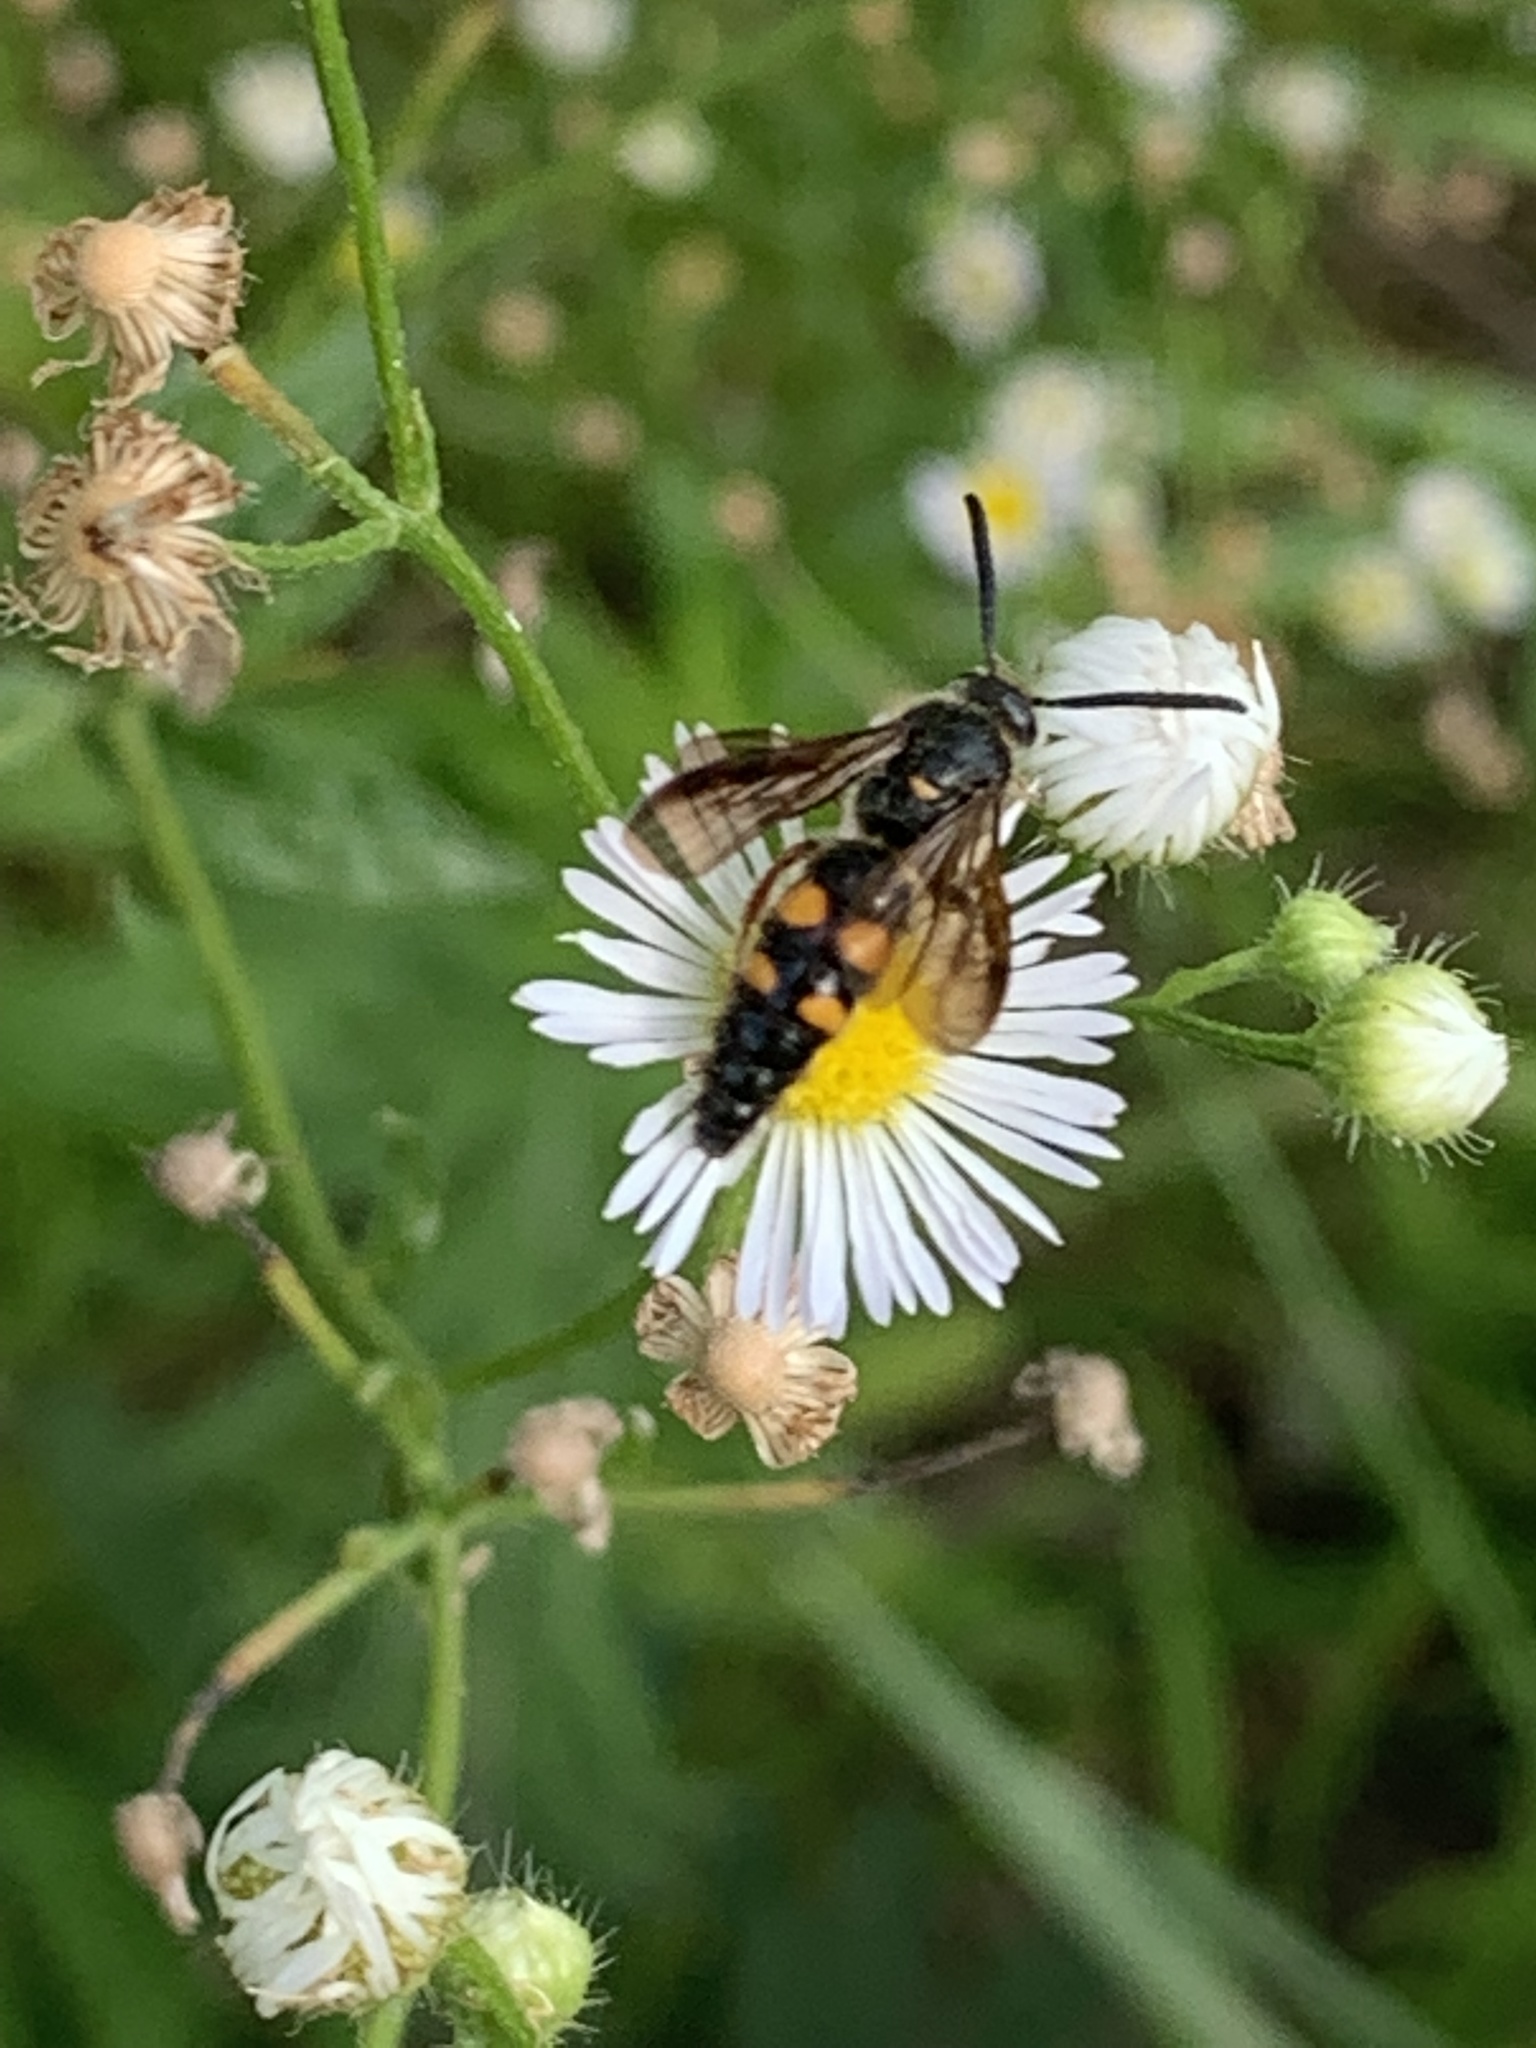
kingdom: Animalia
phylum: Arthropoda
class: Insecta
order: Hymenoptera
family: Scoliidae
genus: Scolia
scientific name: Scolia nobilitata
